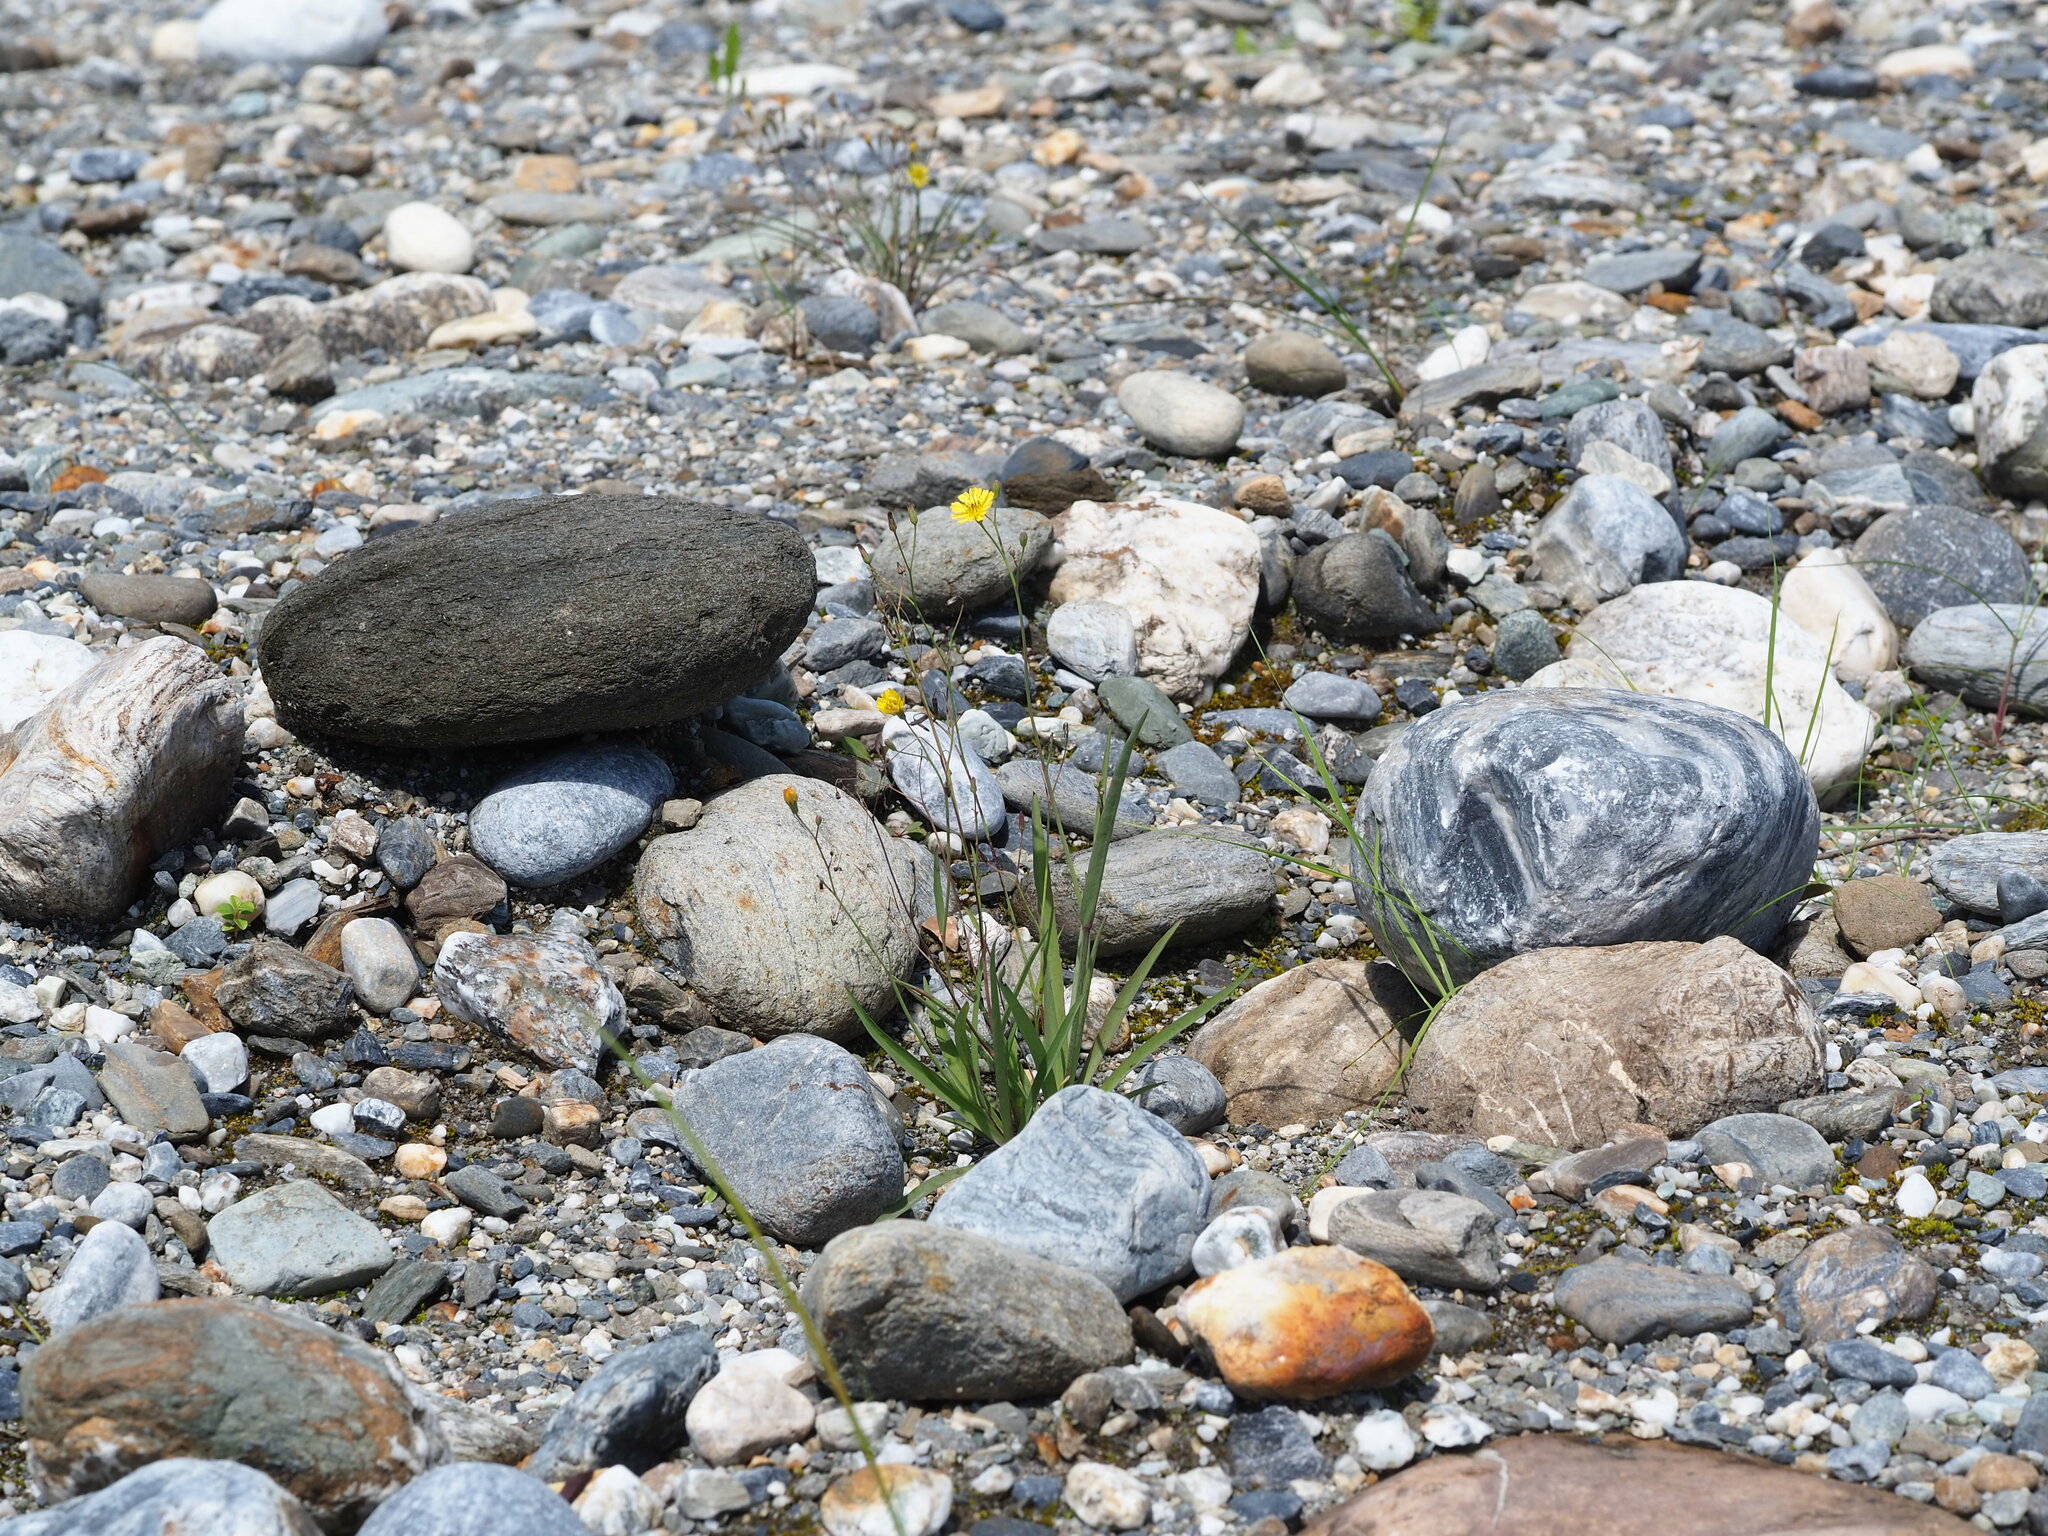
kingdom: Plantae
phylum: Tracheophyta
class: Magnoliopsida
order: Asterales
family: Asteraceae
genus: Ixeris
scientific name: Ixeris tamagawaensis
